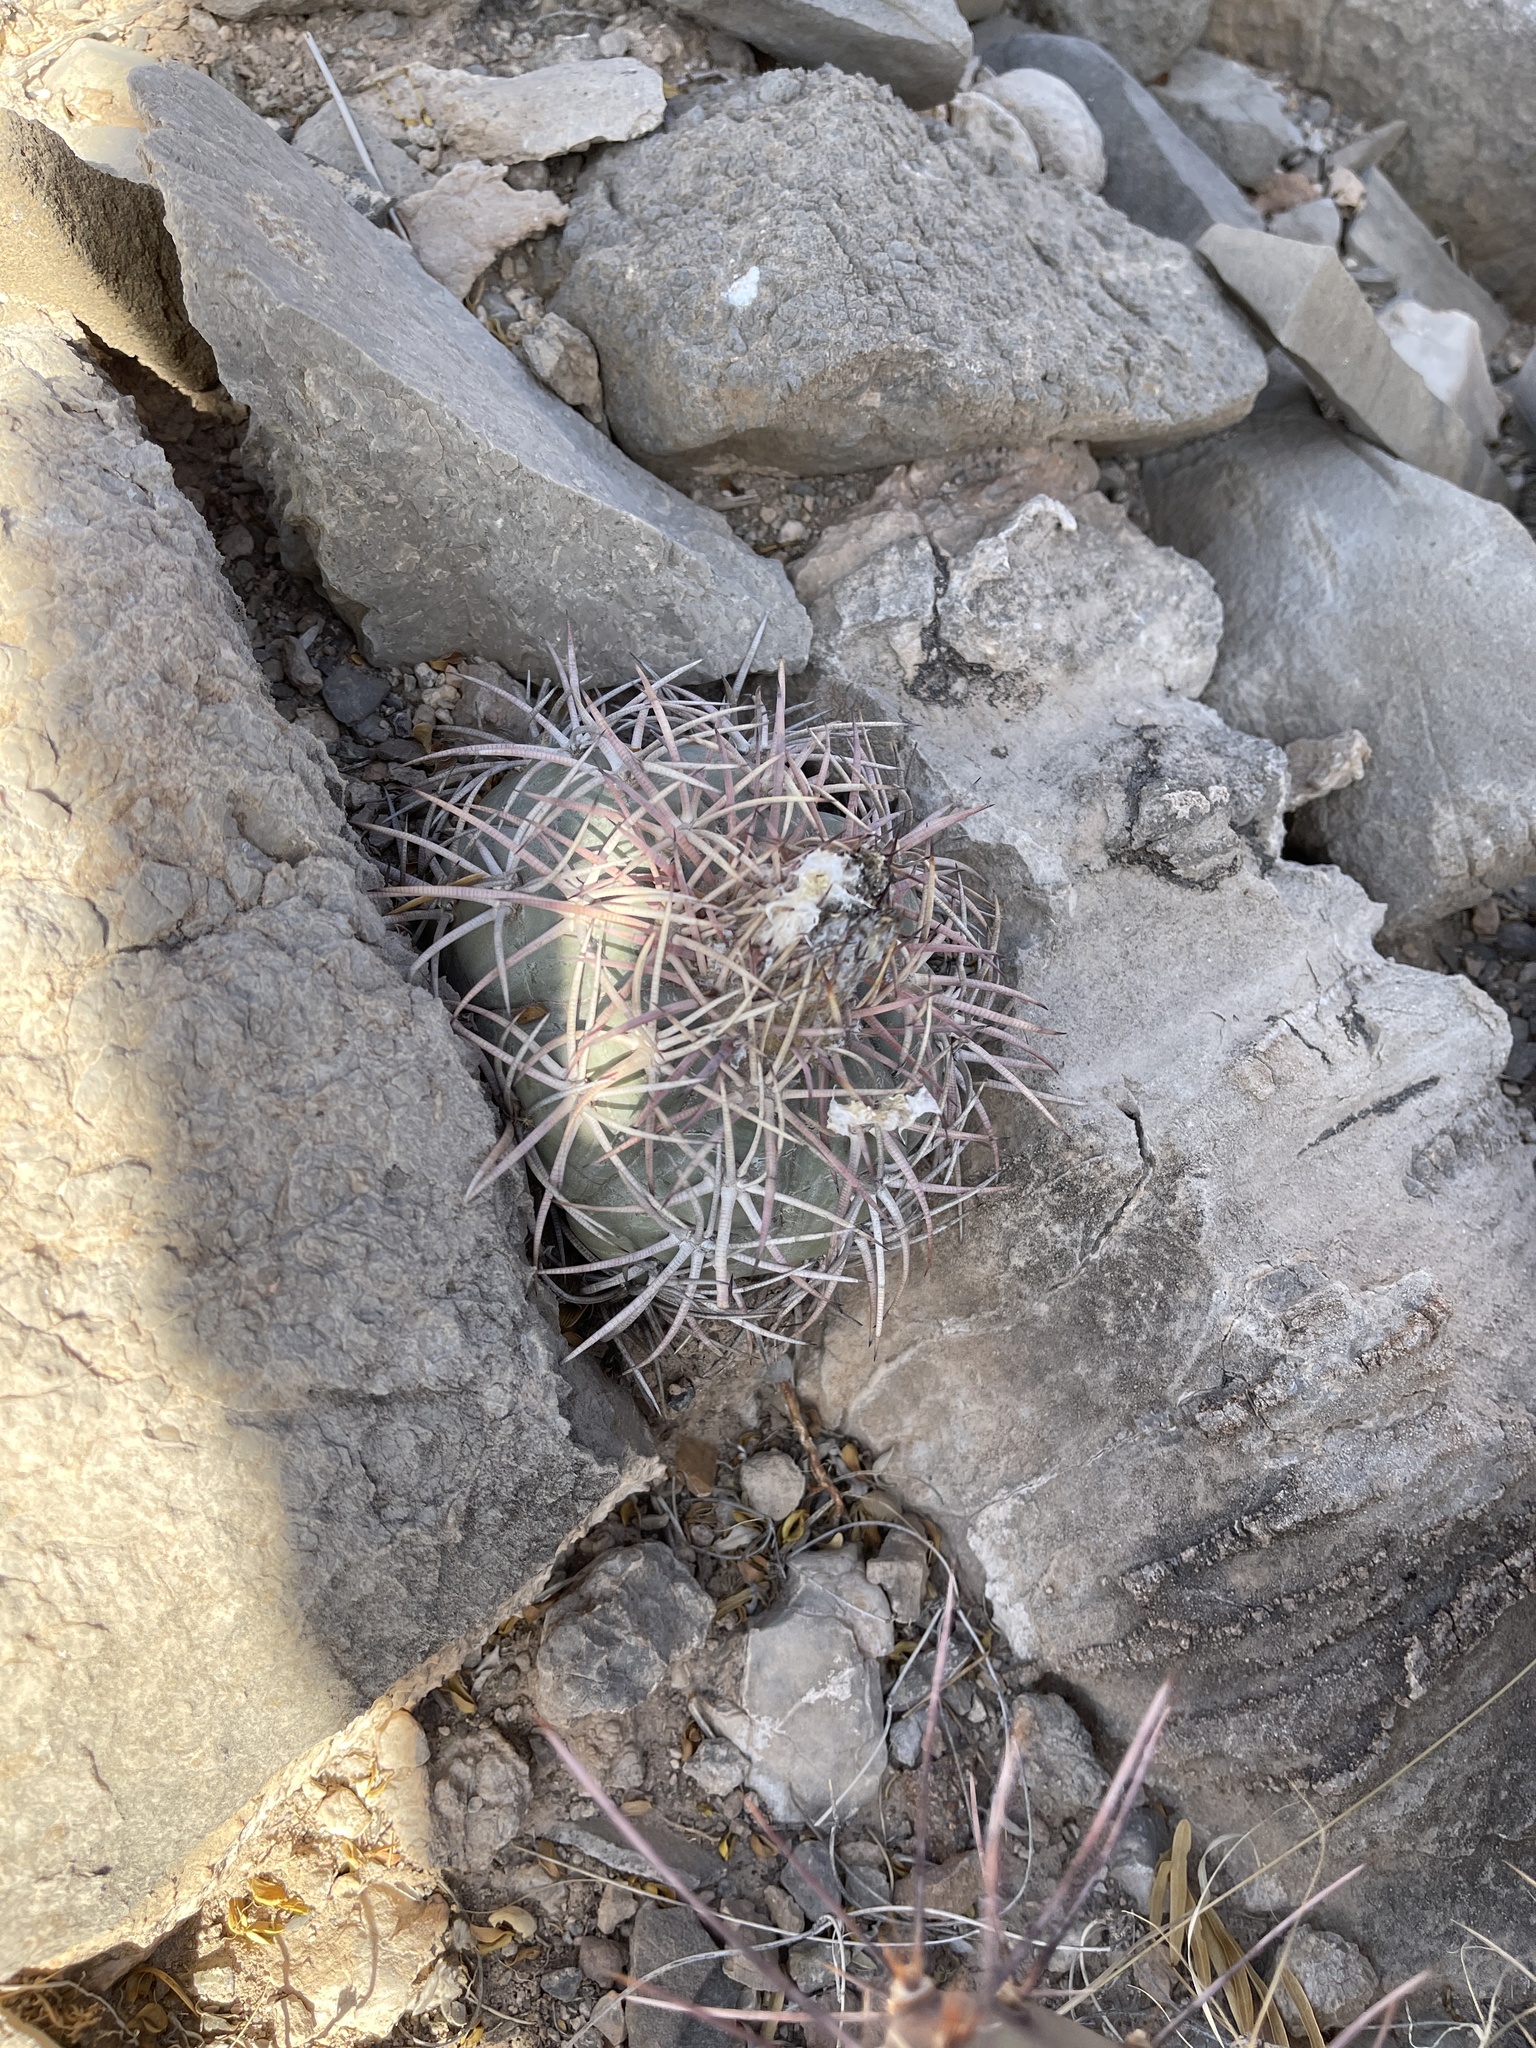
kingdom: Plantae
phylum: Tracheophyta
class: Magnoliopsida
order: Caryophyllales
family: Cactaceae
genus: Echinocactus
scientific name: Echinocactus horizonthalonius
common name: Devilshead
